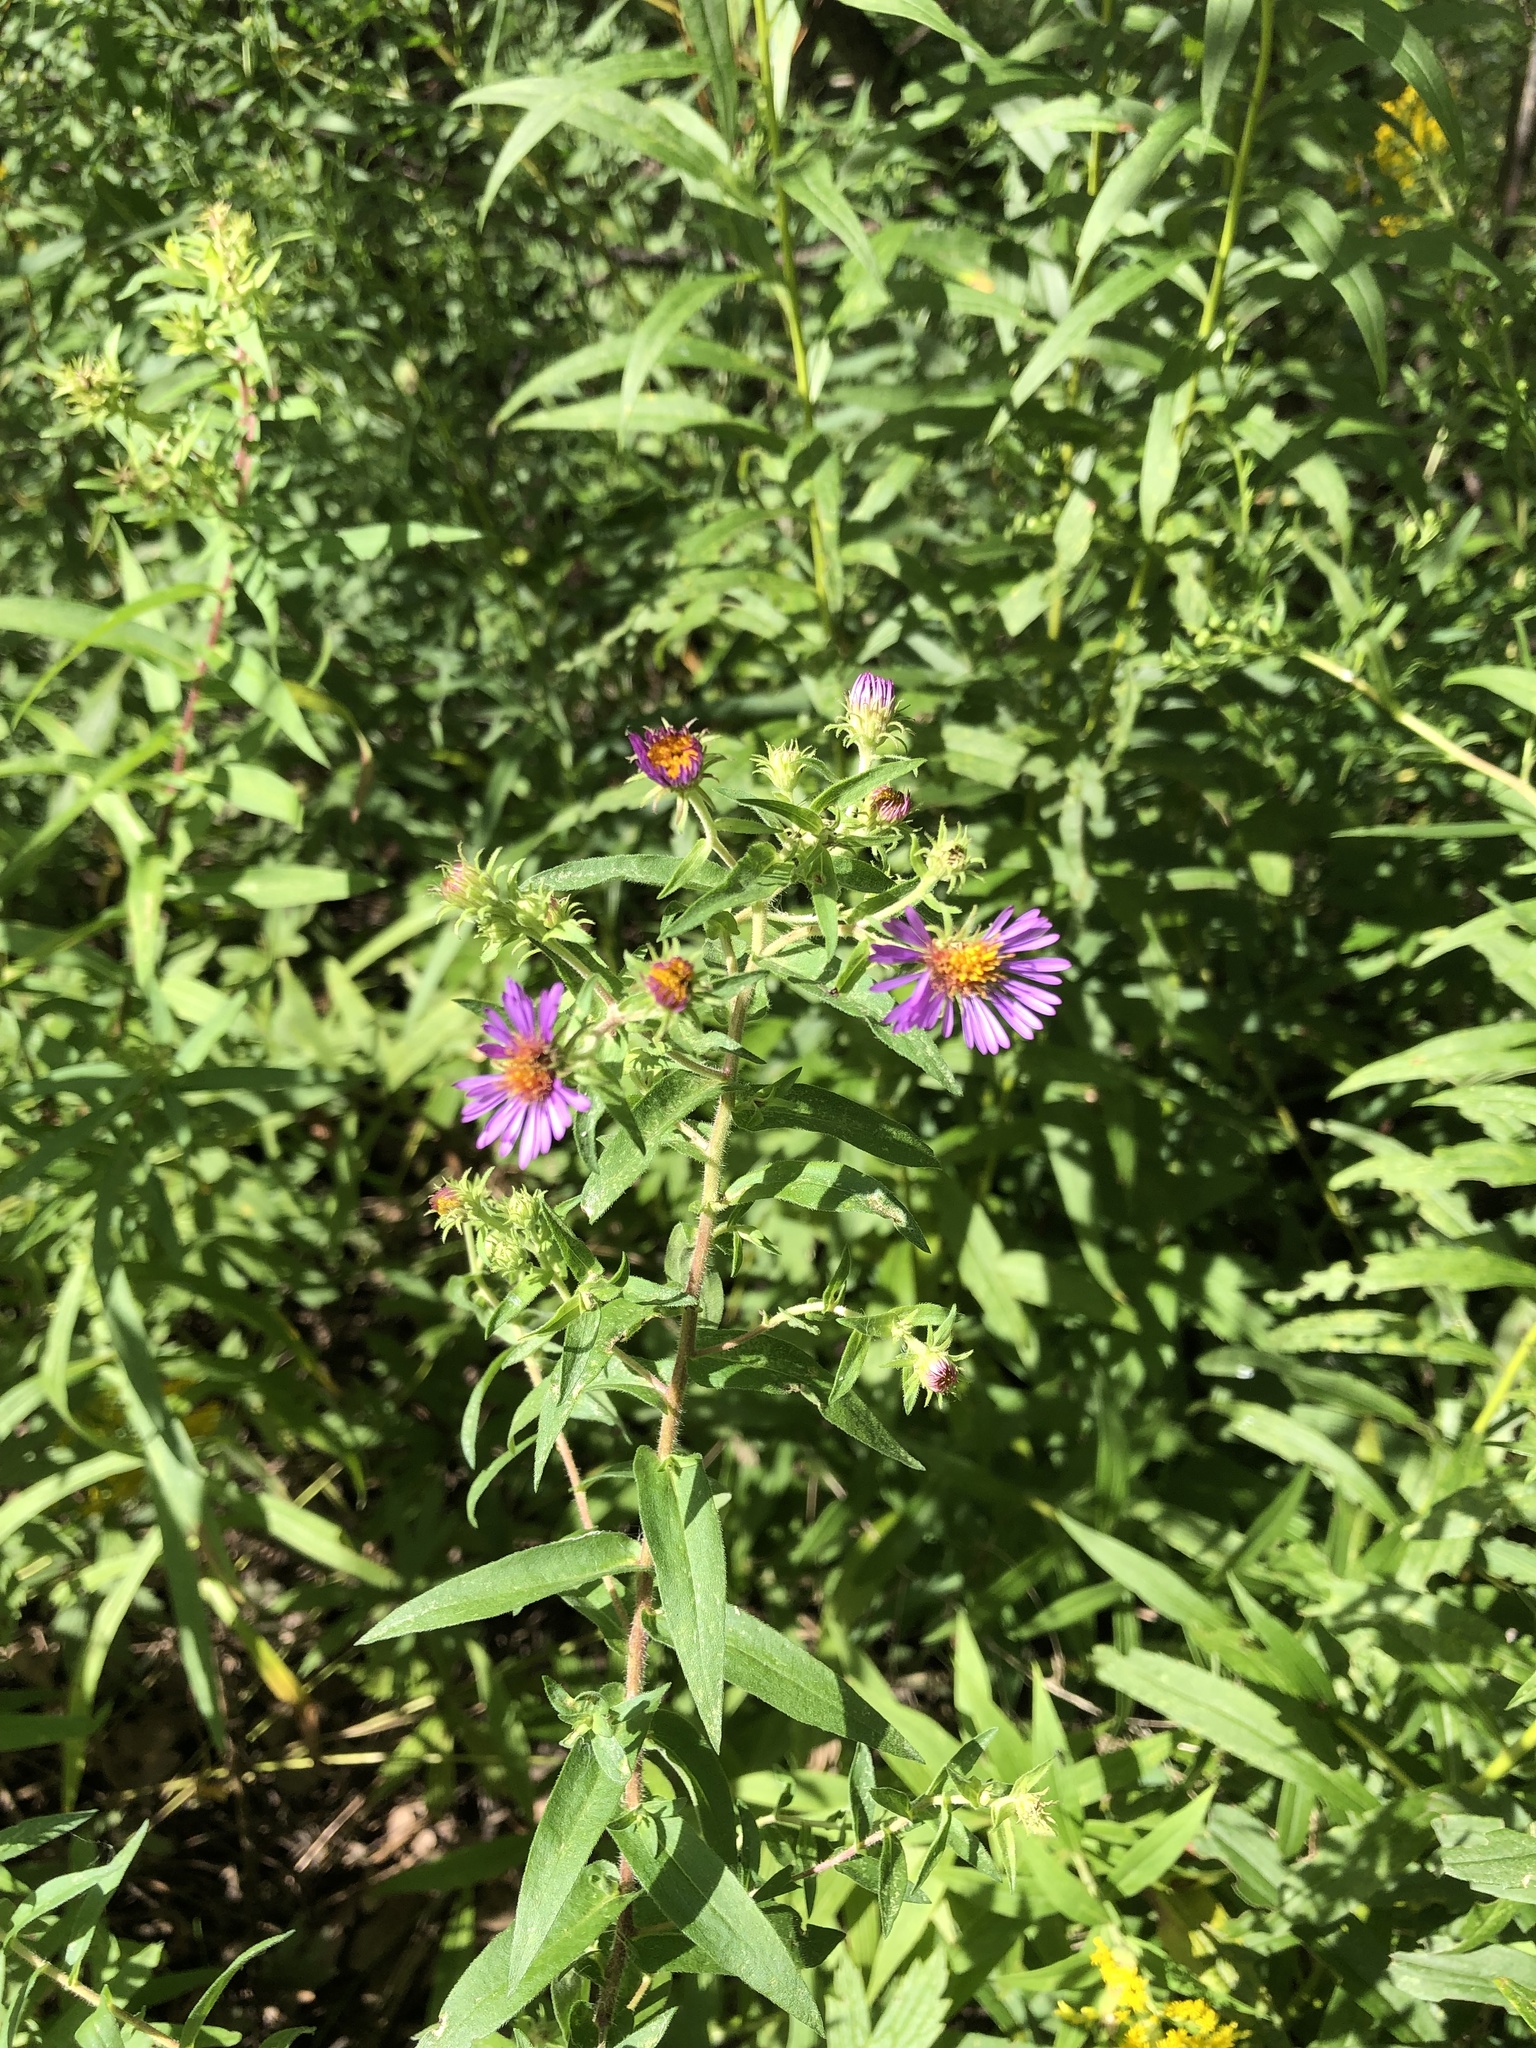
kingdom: Plantae
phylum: Tracheophyta
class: Magnoliopsida
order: Asterales
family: Asteraceae
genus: Symphyotrichum
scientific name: Symphyotrichum novae-angliae
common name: Michaelmas daisy
